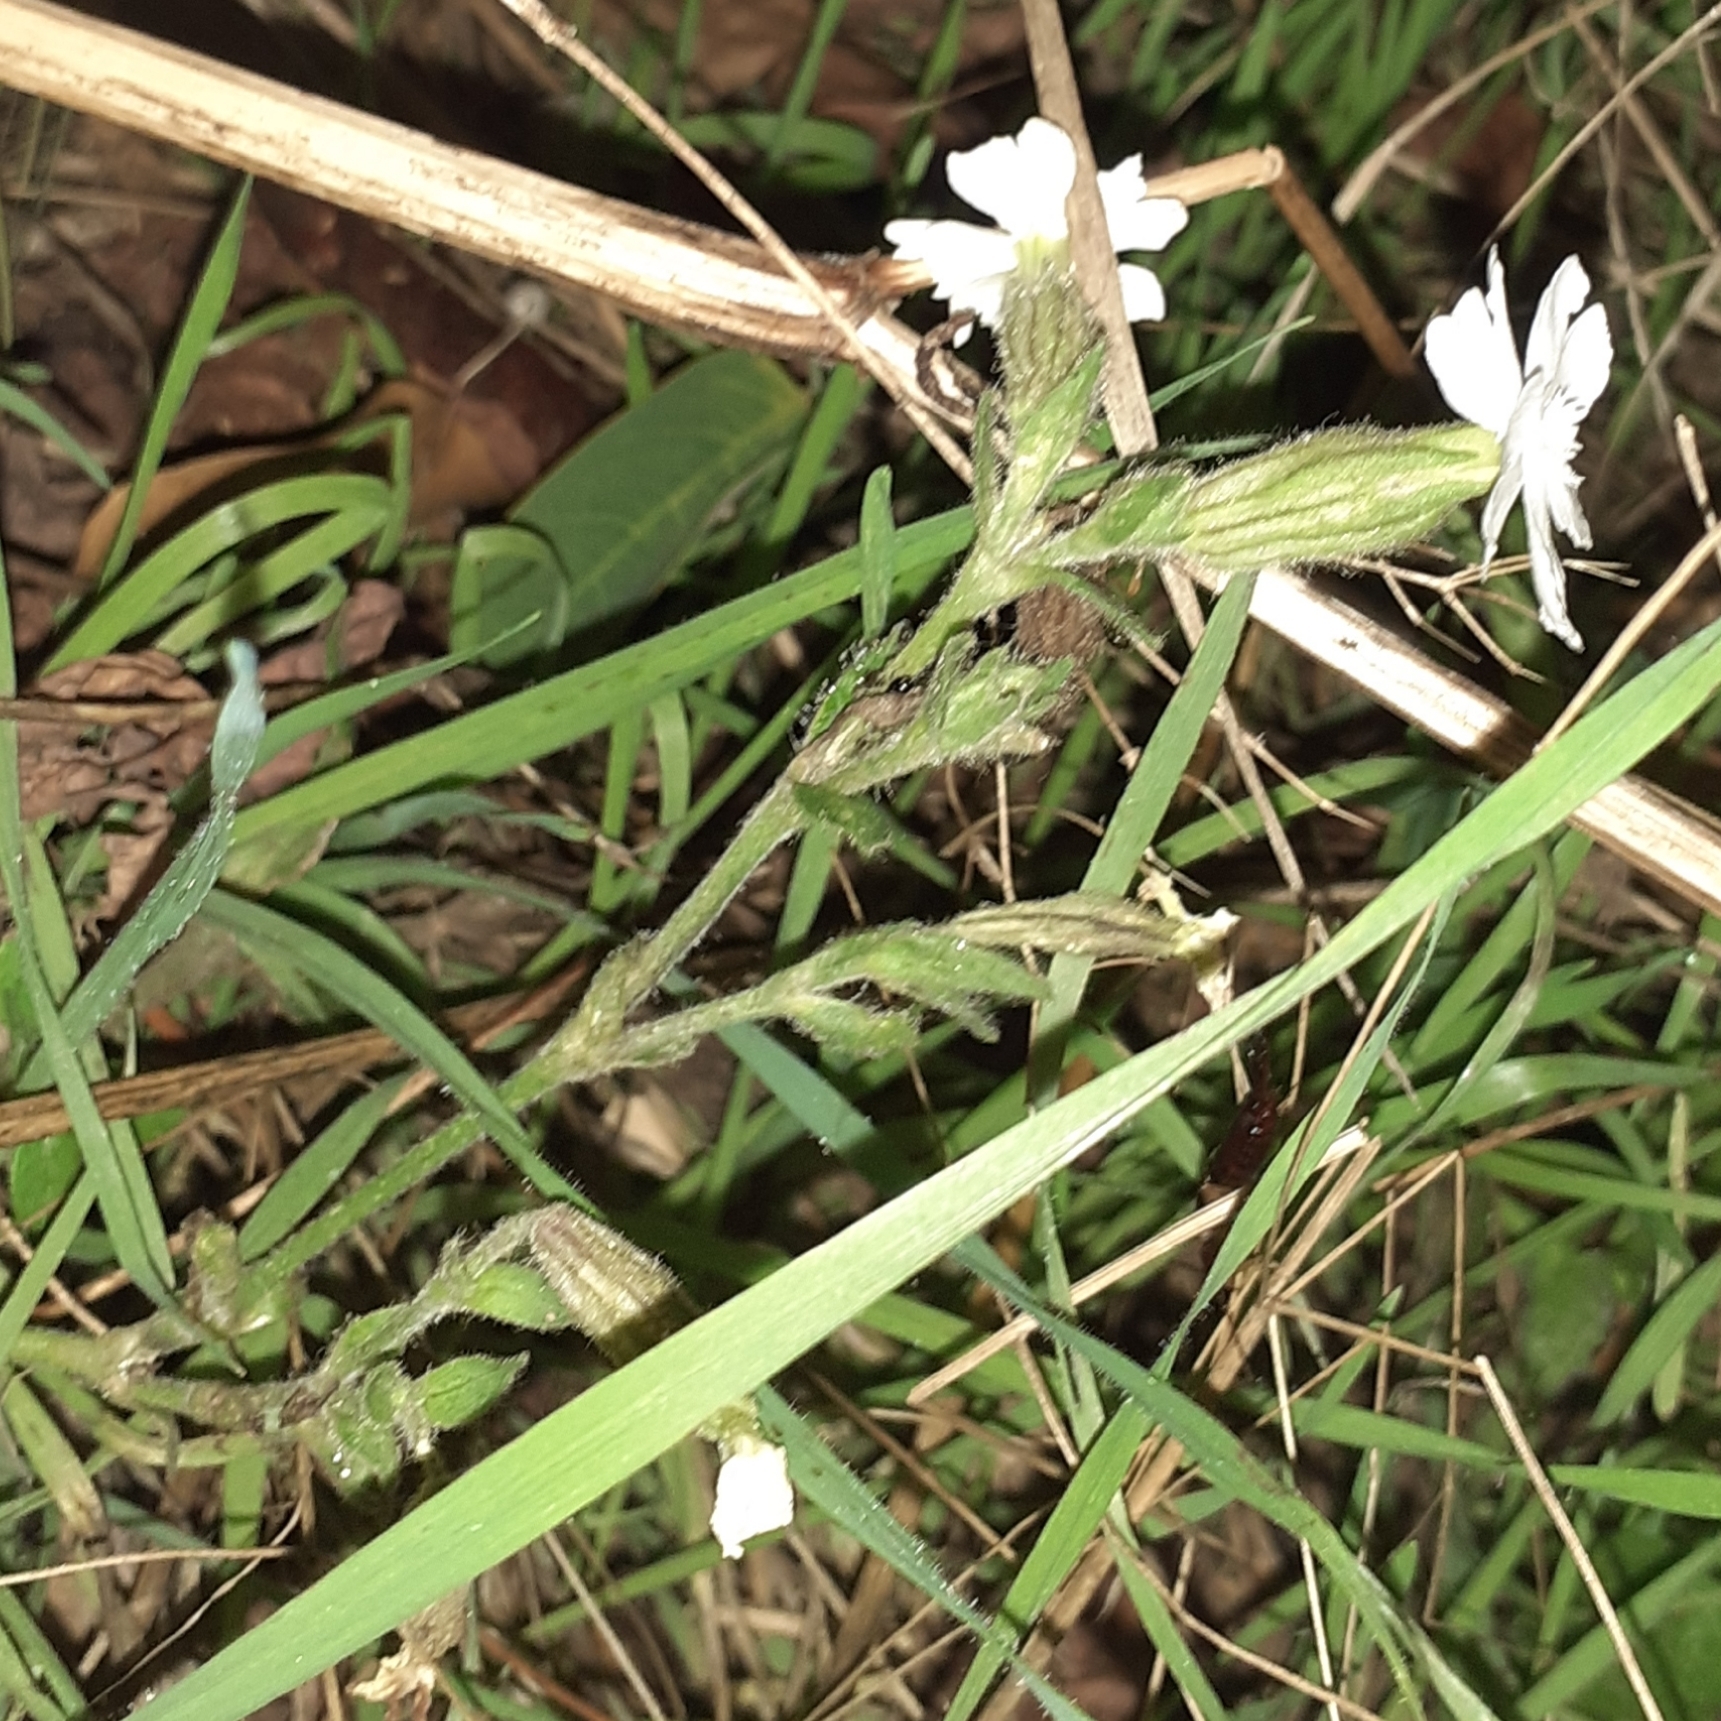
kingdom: Plantae
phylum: Tracheophyta
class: Magnoliopsida
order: Caryophyllales
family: Caryophyllaceae
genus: Silene
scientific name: Silene latifolia
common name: White campion
